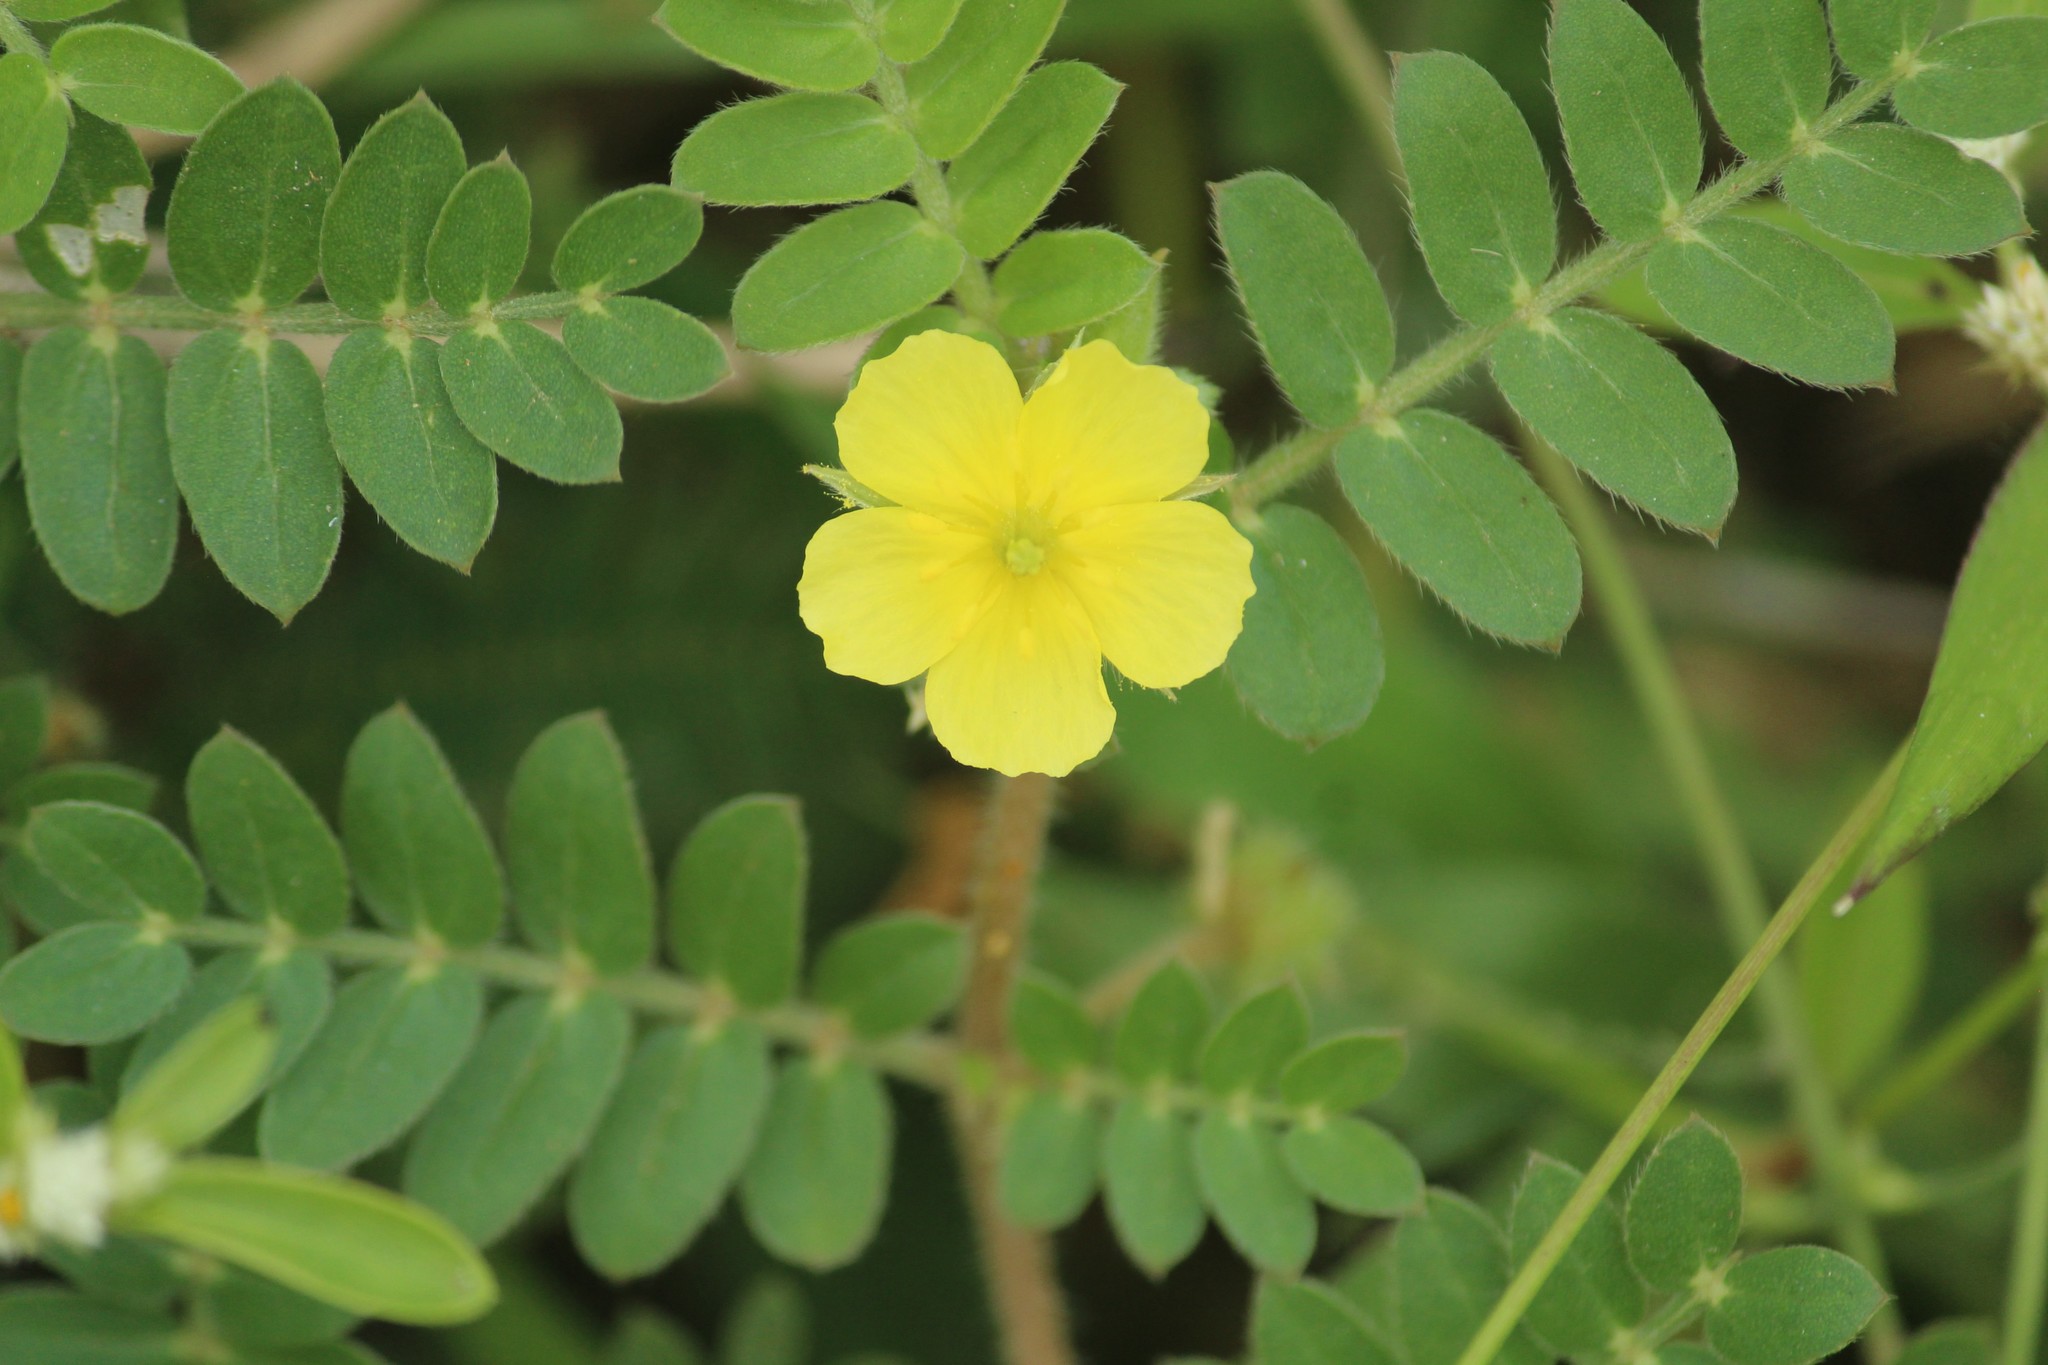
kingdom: Plantae
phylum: Tracheophyta
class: Magnoliopsida
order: Zygophyllales
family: Zygophyllaceae
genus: Tribulus
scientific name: Tribulus terrestris
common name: Puncturevine
